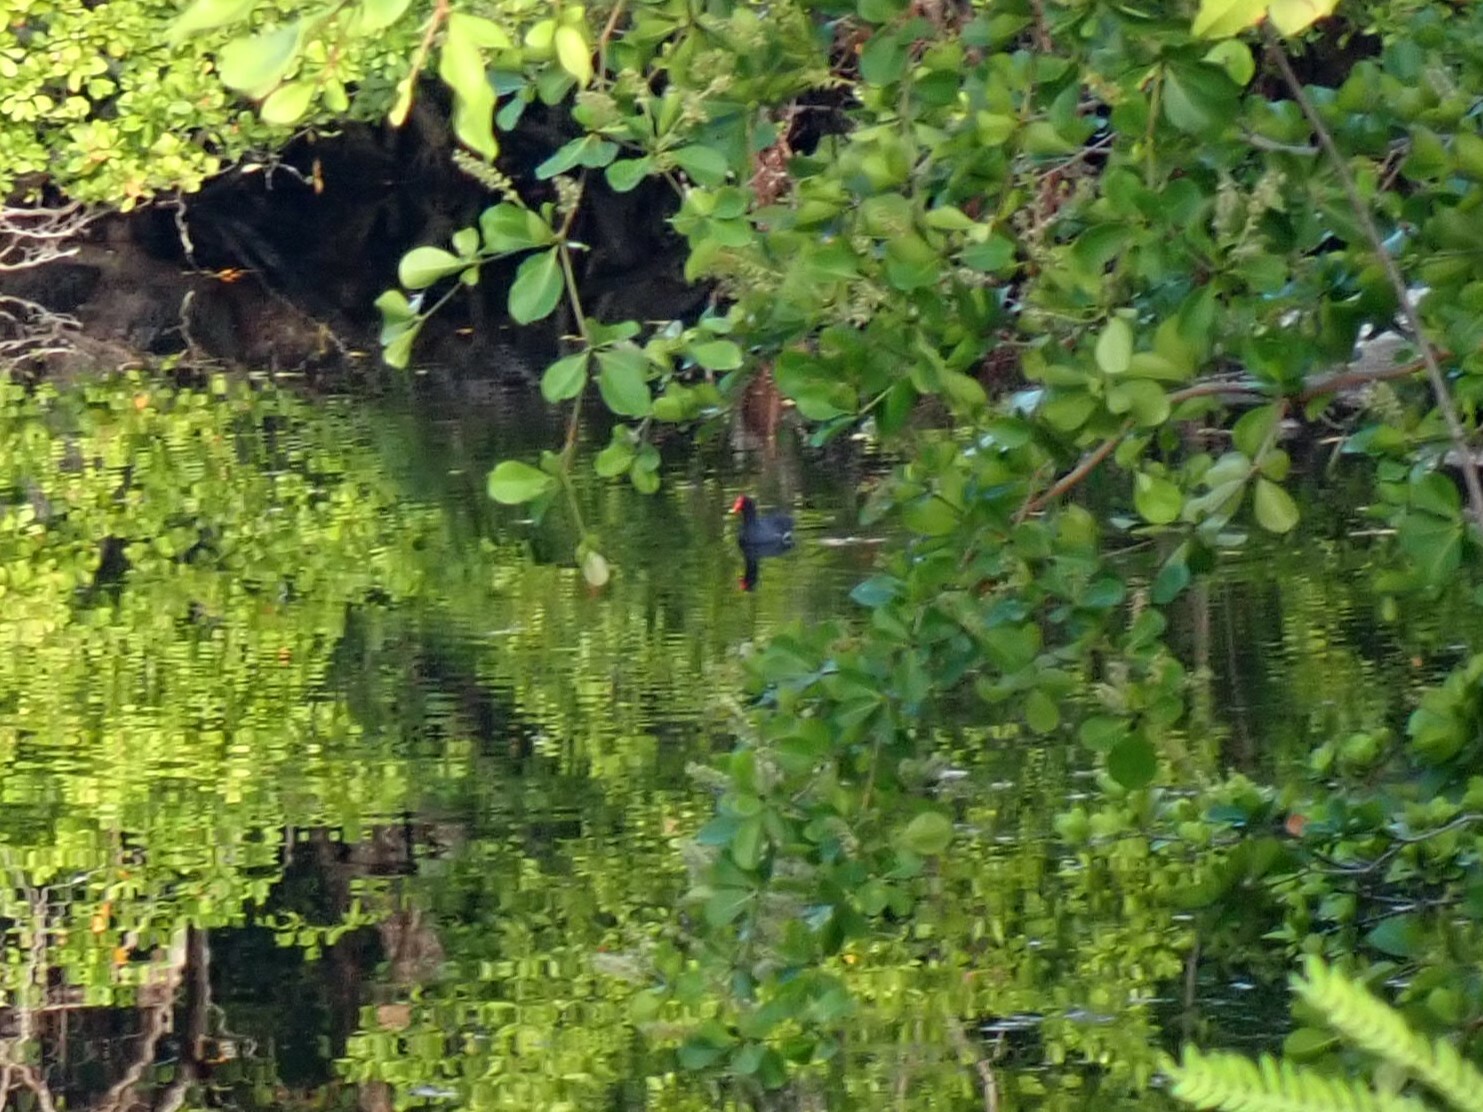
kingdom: Animalia
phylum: Chordata
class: Aves
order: Gruiformes
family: Rallidae
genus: Gallinula
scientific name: Gallinula chloropus
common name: Common moorhen
